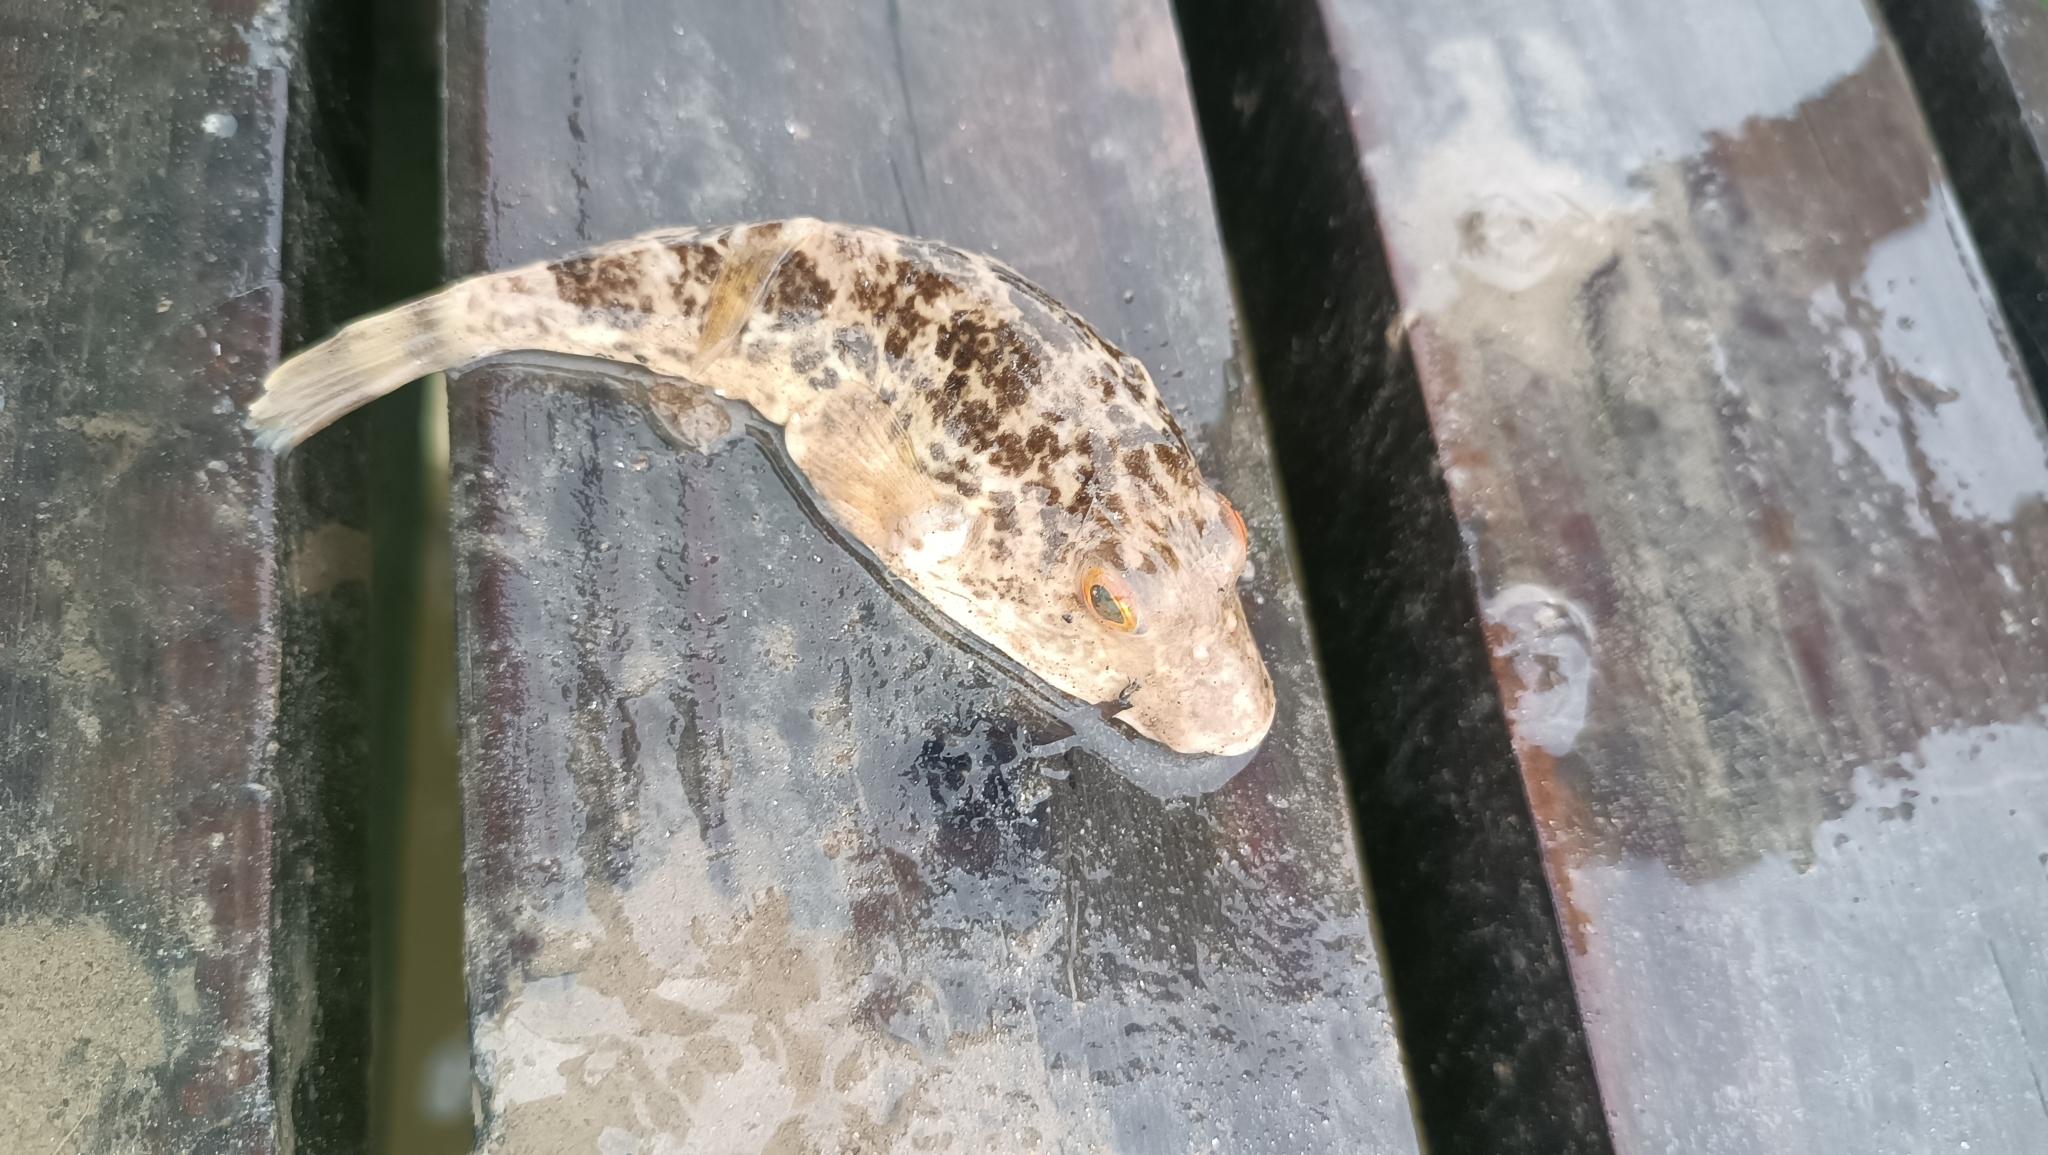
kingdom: Animalia
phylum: Chordata
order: Tetraodontiformes
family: Tetraodontidae
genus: Sphoeroides
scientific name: Sphoeroides testudineus
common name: Checkered puffer
